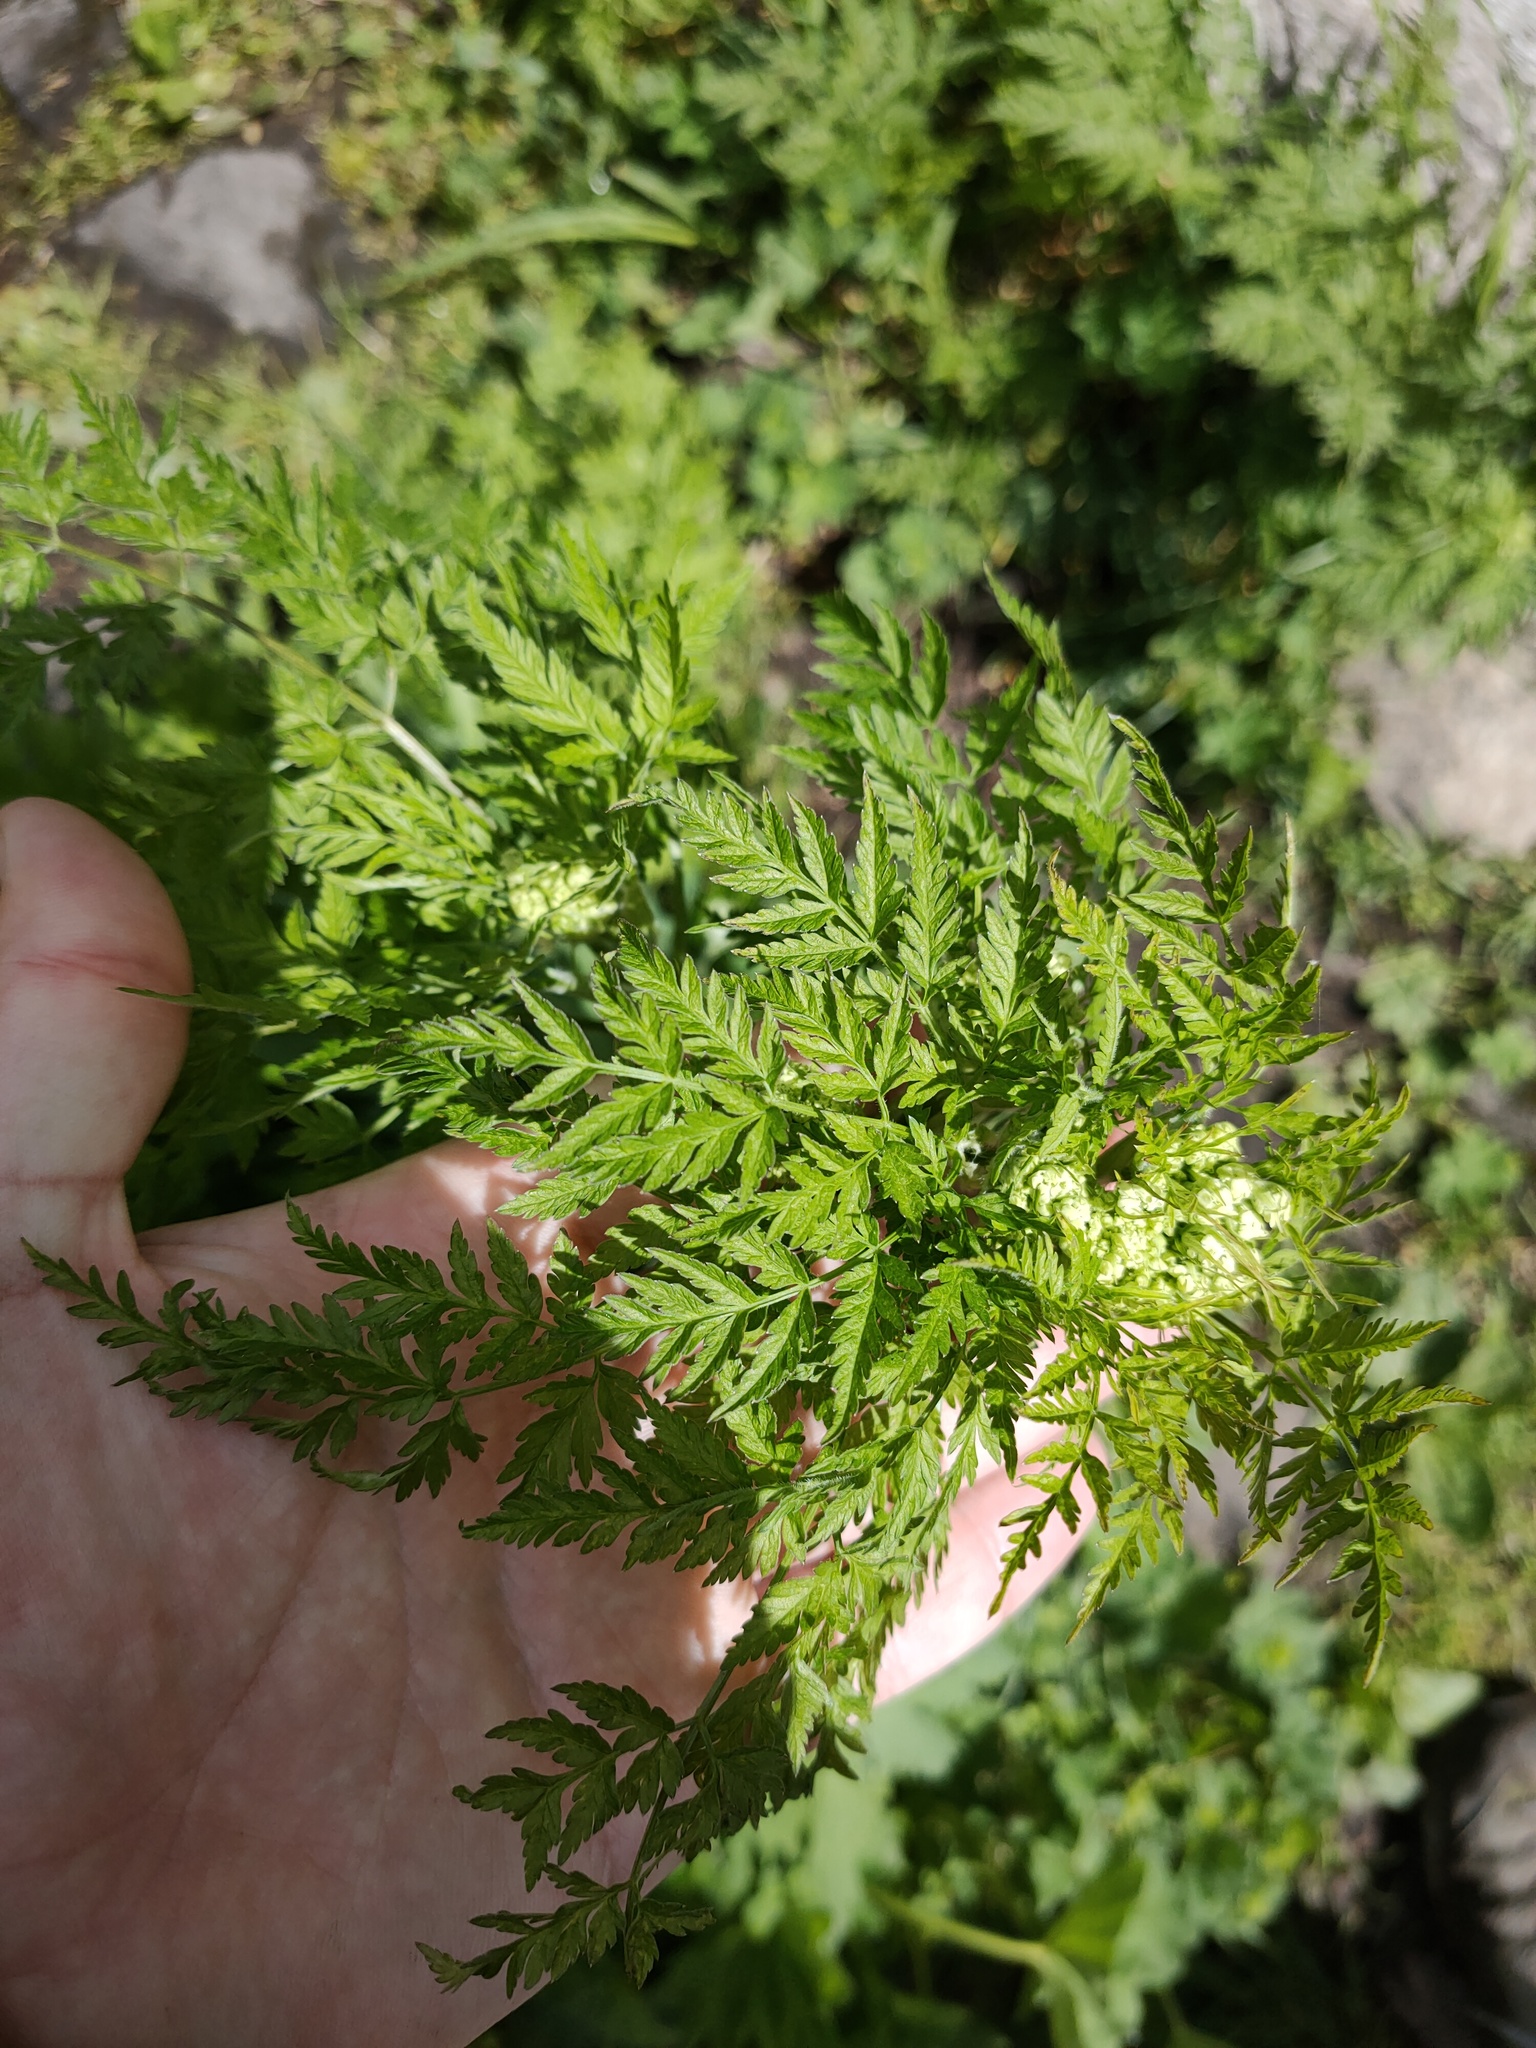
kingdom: Plantae
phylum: Tracheophyta
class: Magnoliopsida
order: Apiales
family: Apiaceae
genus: Anthriscus
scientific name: Anthriscus sylvestris
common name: Cow parsley
